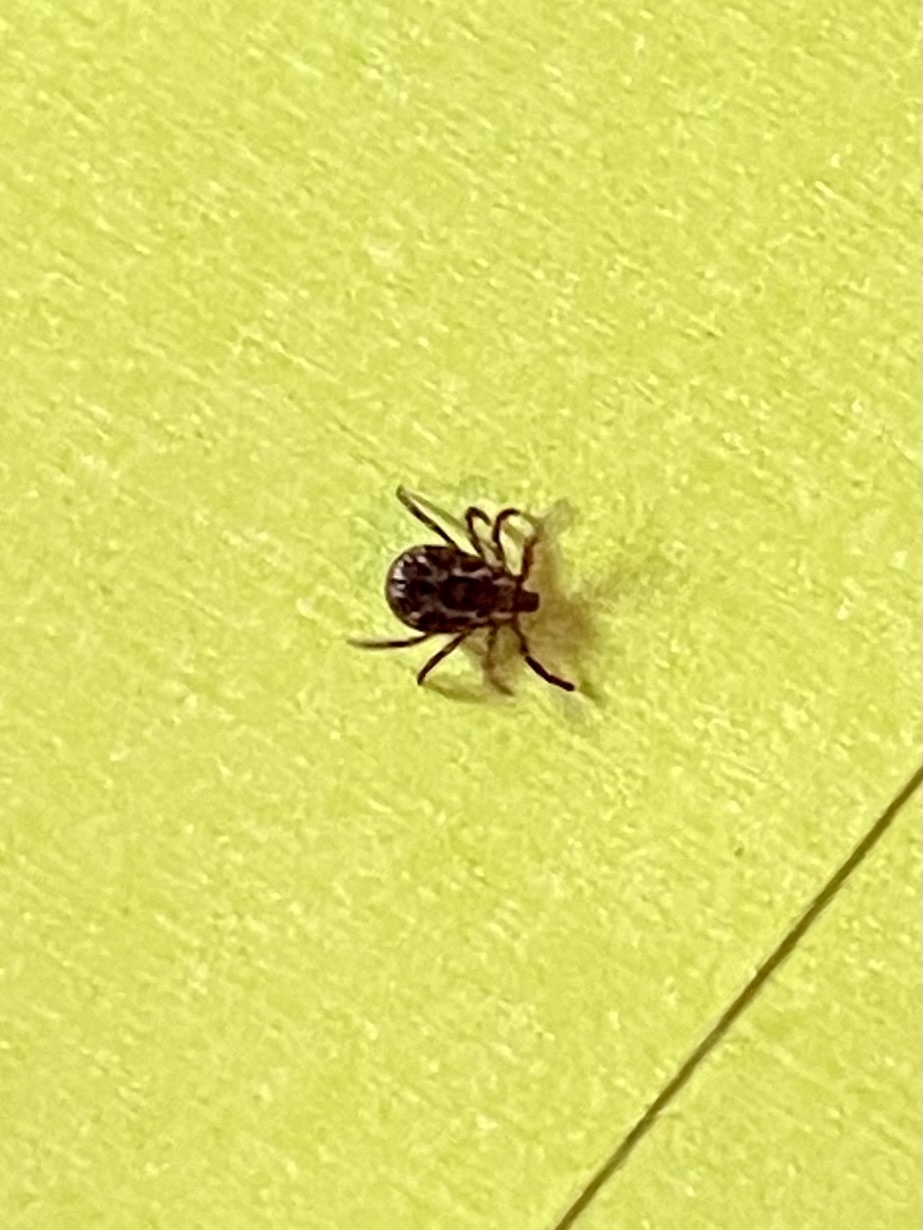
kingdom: Animalia
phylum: Arthropoda
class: Arachnida
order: Ixodida
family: Ixodidae
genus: Dermacentor
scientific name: Dermacentor variabilis
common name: American dog tick
